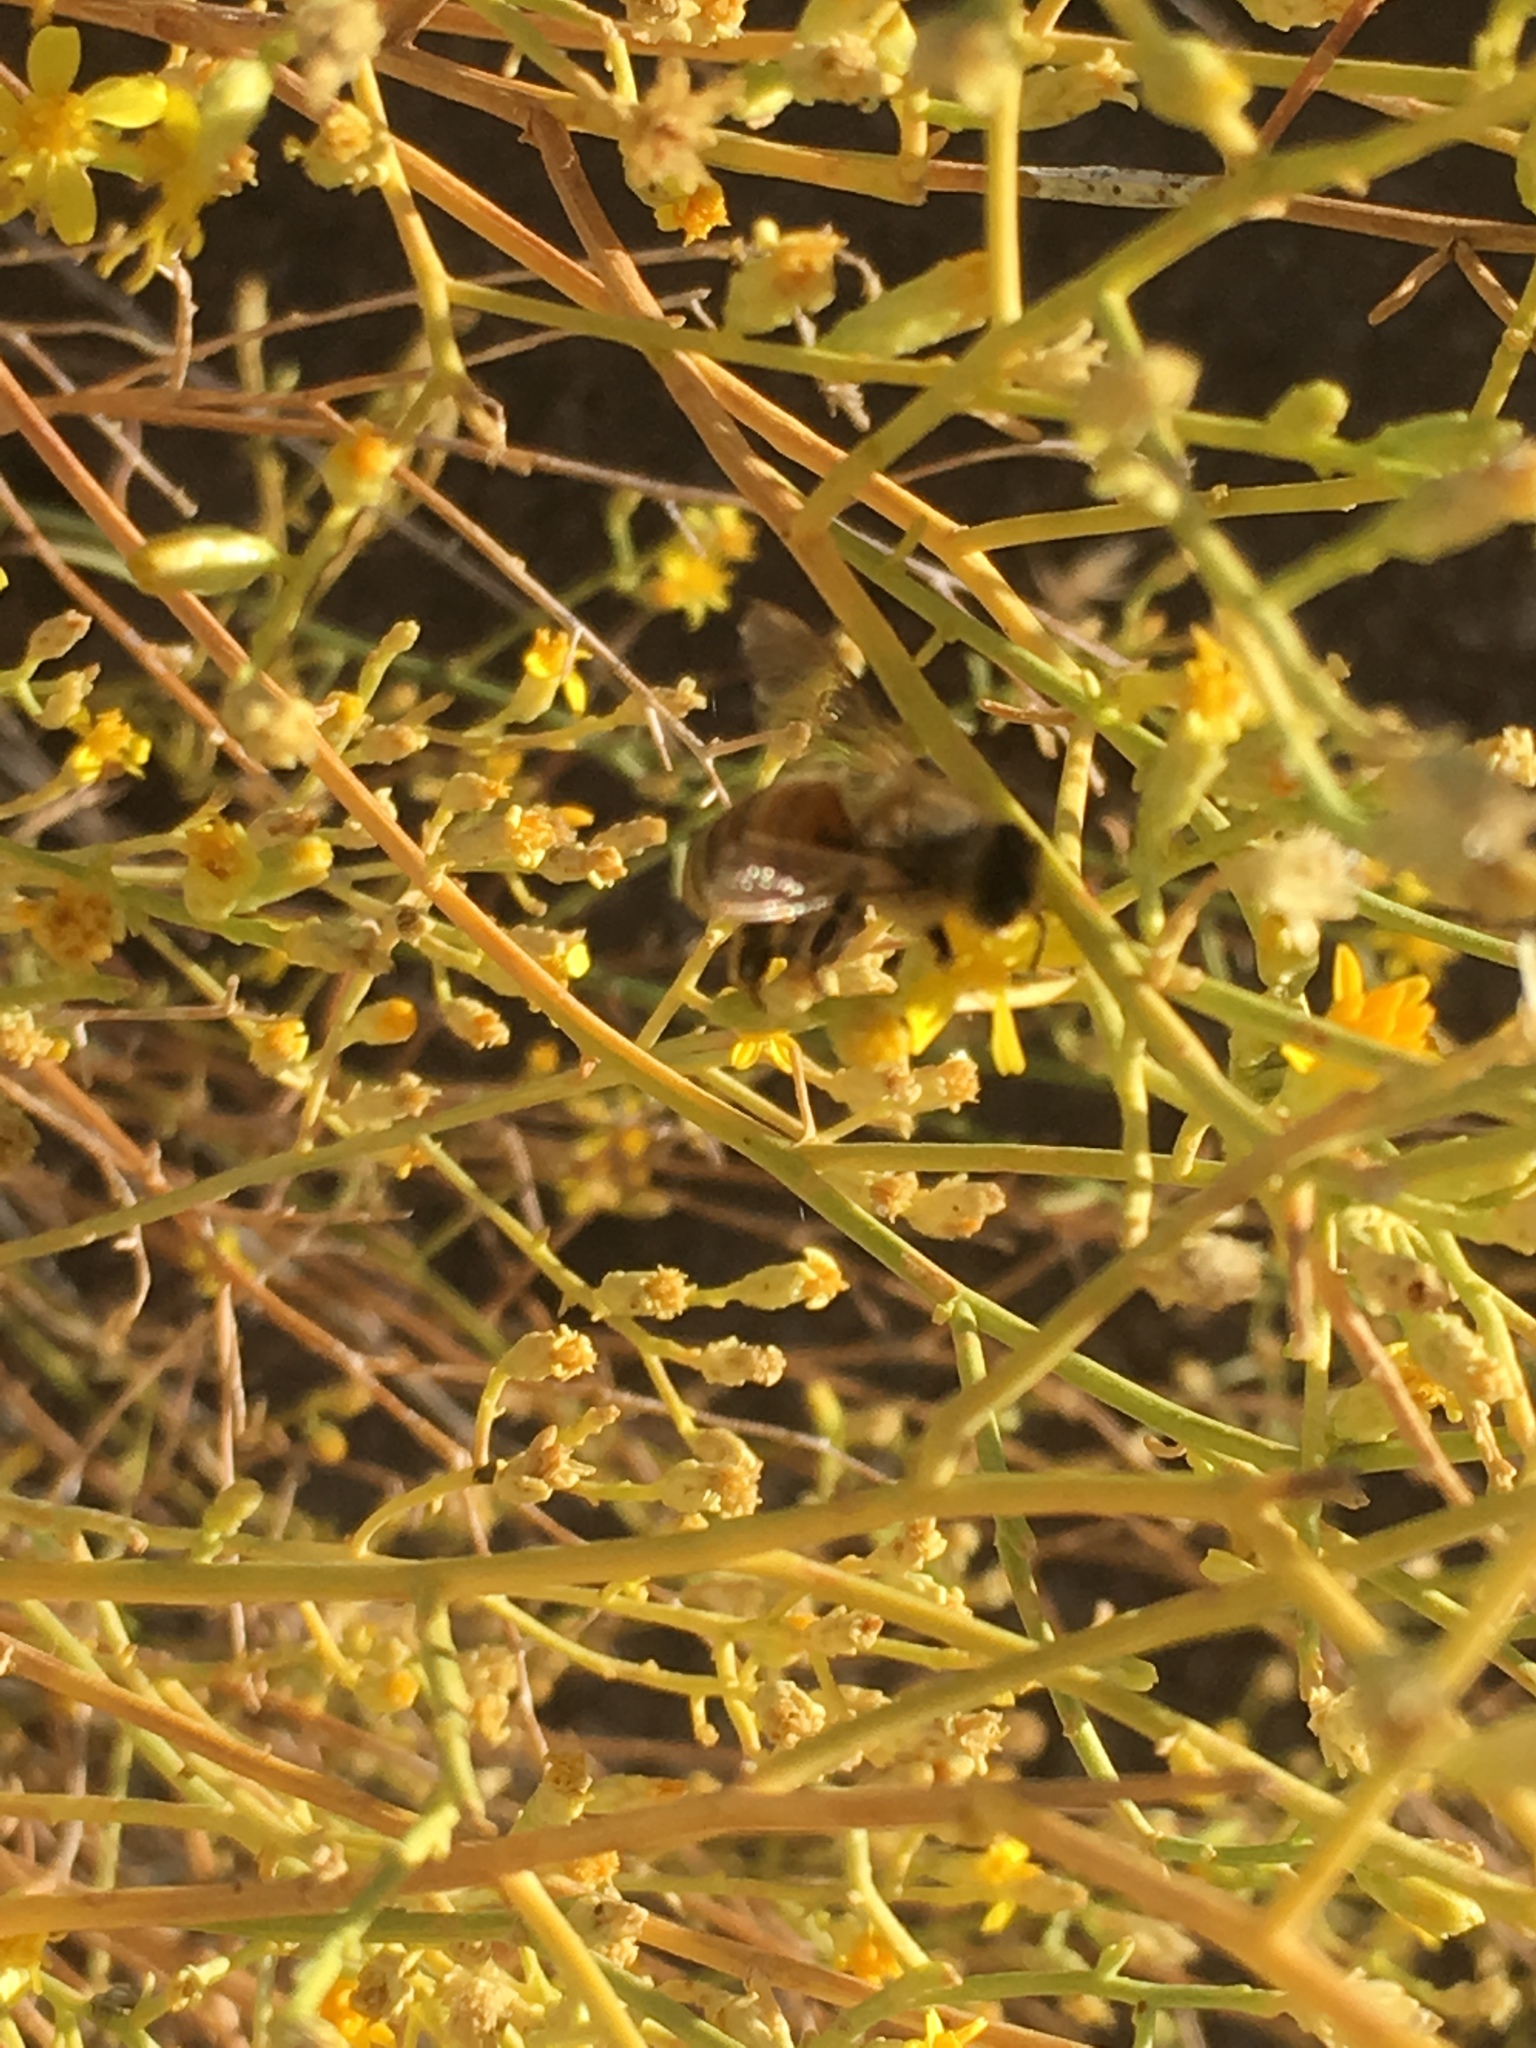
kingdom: Plantae
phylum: Tracheophyta
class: Magnoliopsida
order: Asterales
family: Asteraceae
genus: Gutierrezia
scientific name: Gutierrezia sarothrae
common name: Broom snakeweed
